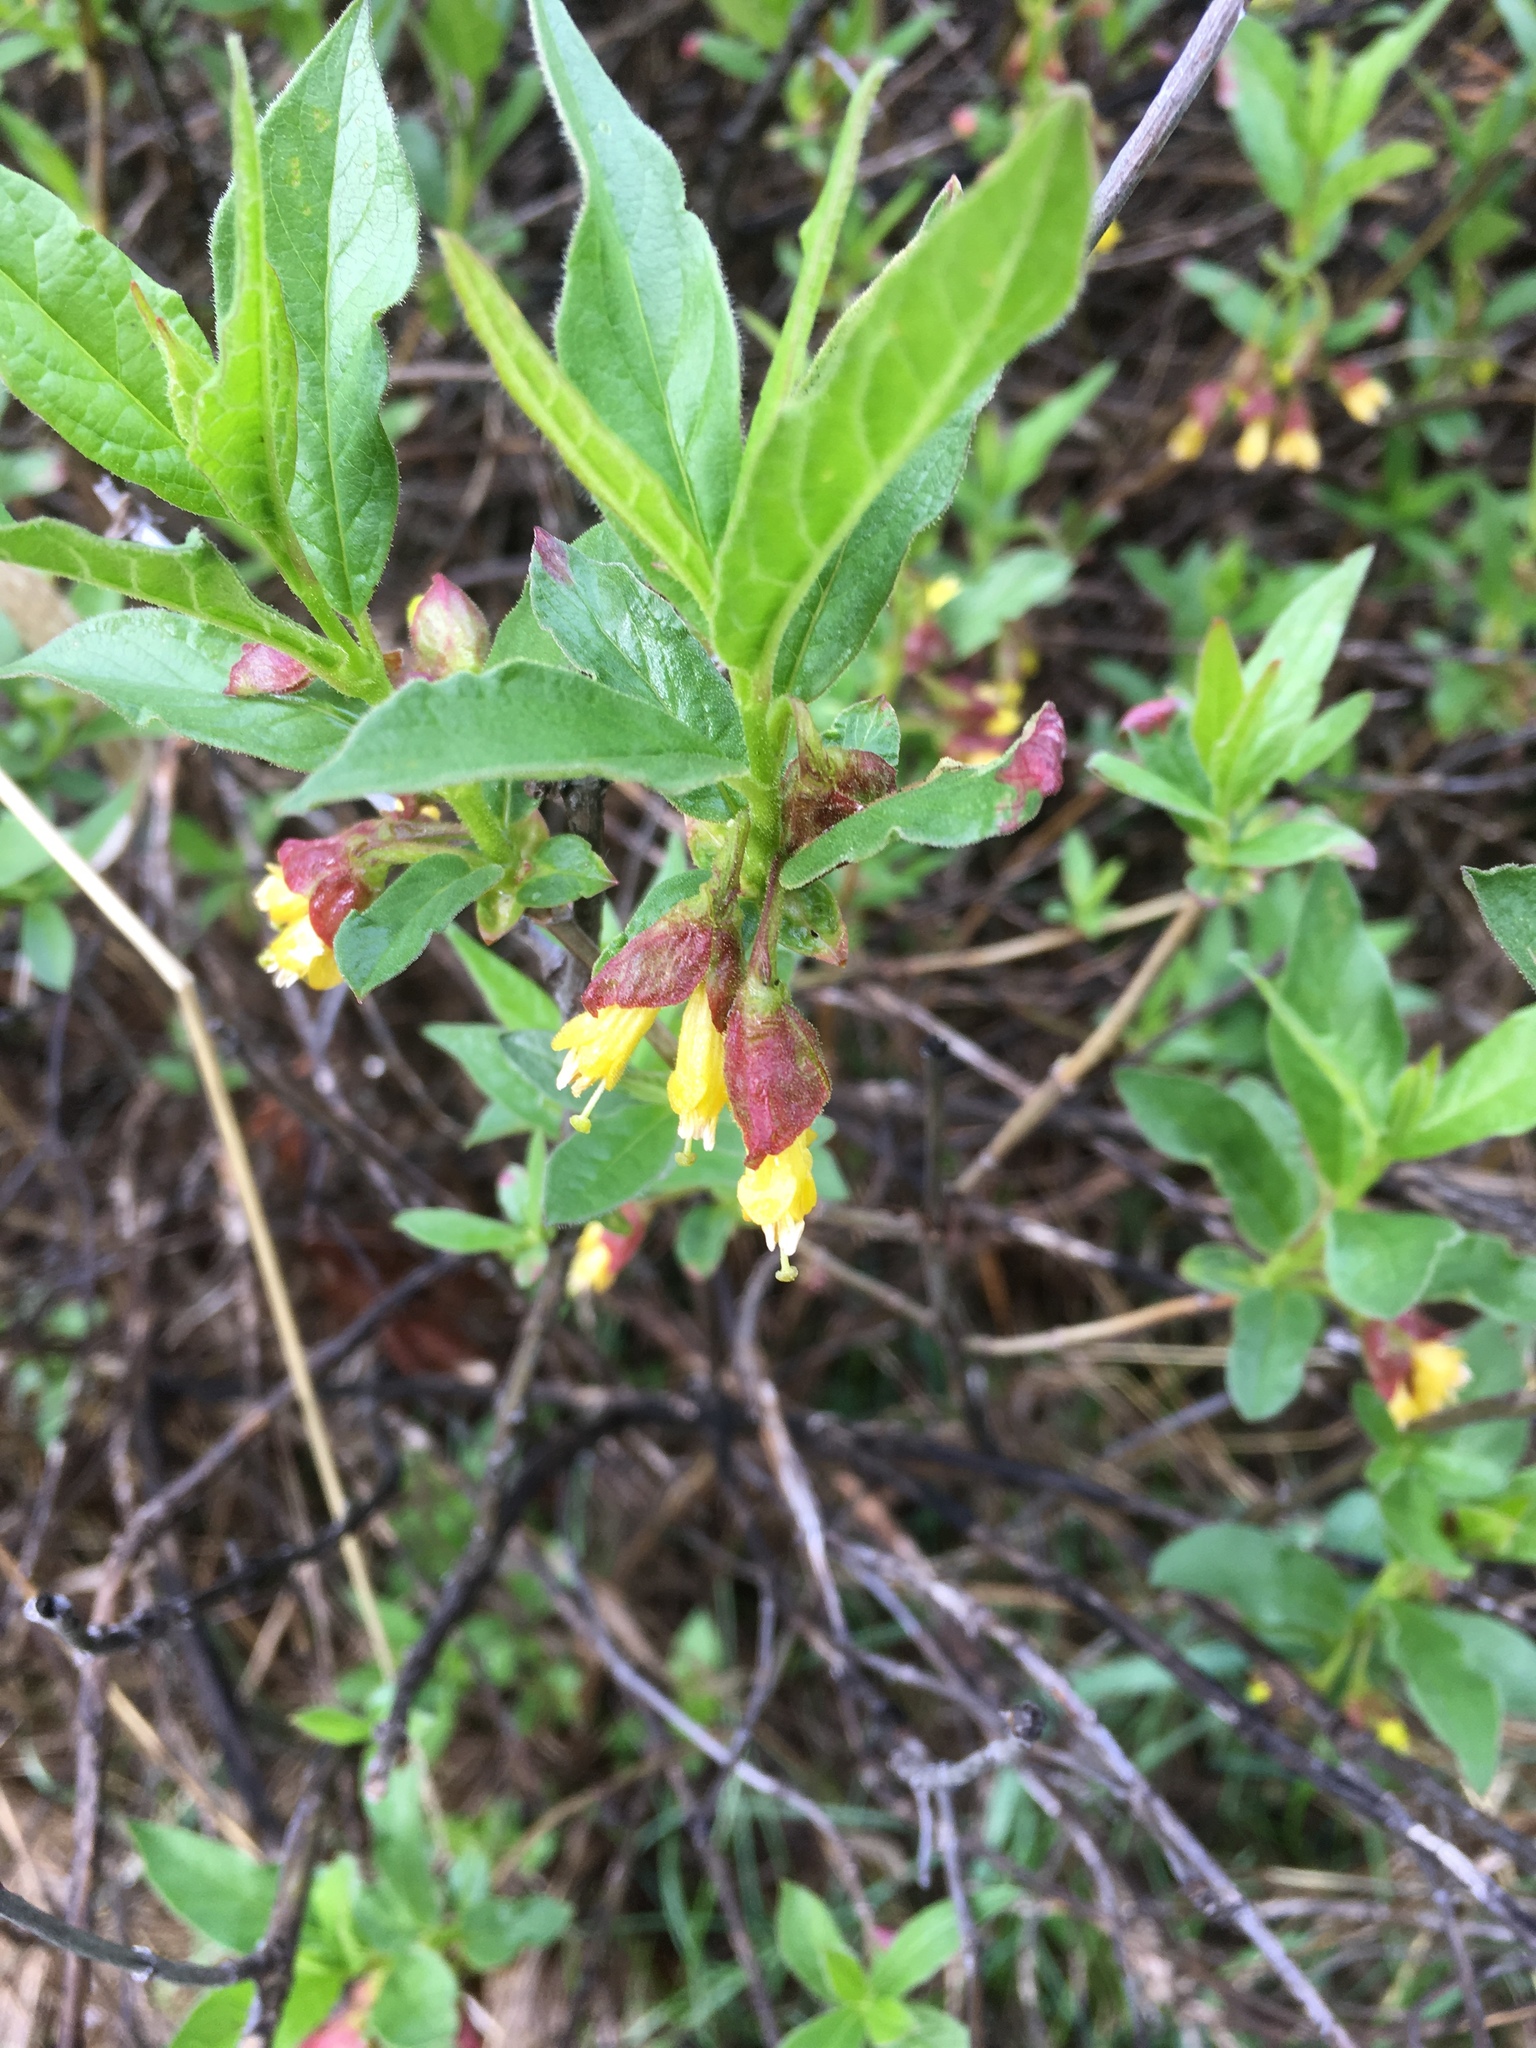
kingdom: Plantae
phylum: Tracheophyta
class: Magnoliopsida
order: Dipsacales
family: Caprifoliaceae
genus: Lonicera
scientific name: Lonicera involucrata
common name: Californian honeysuckle
